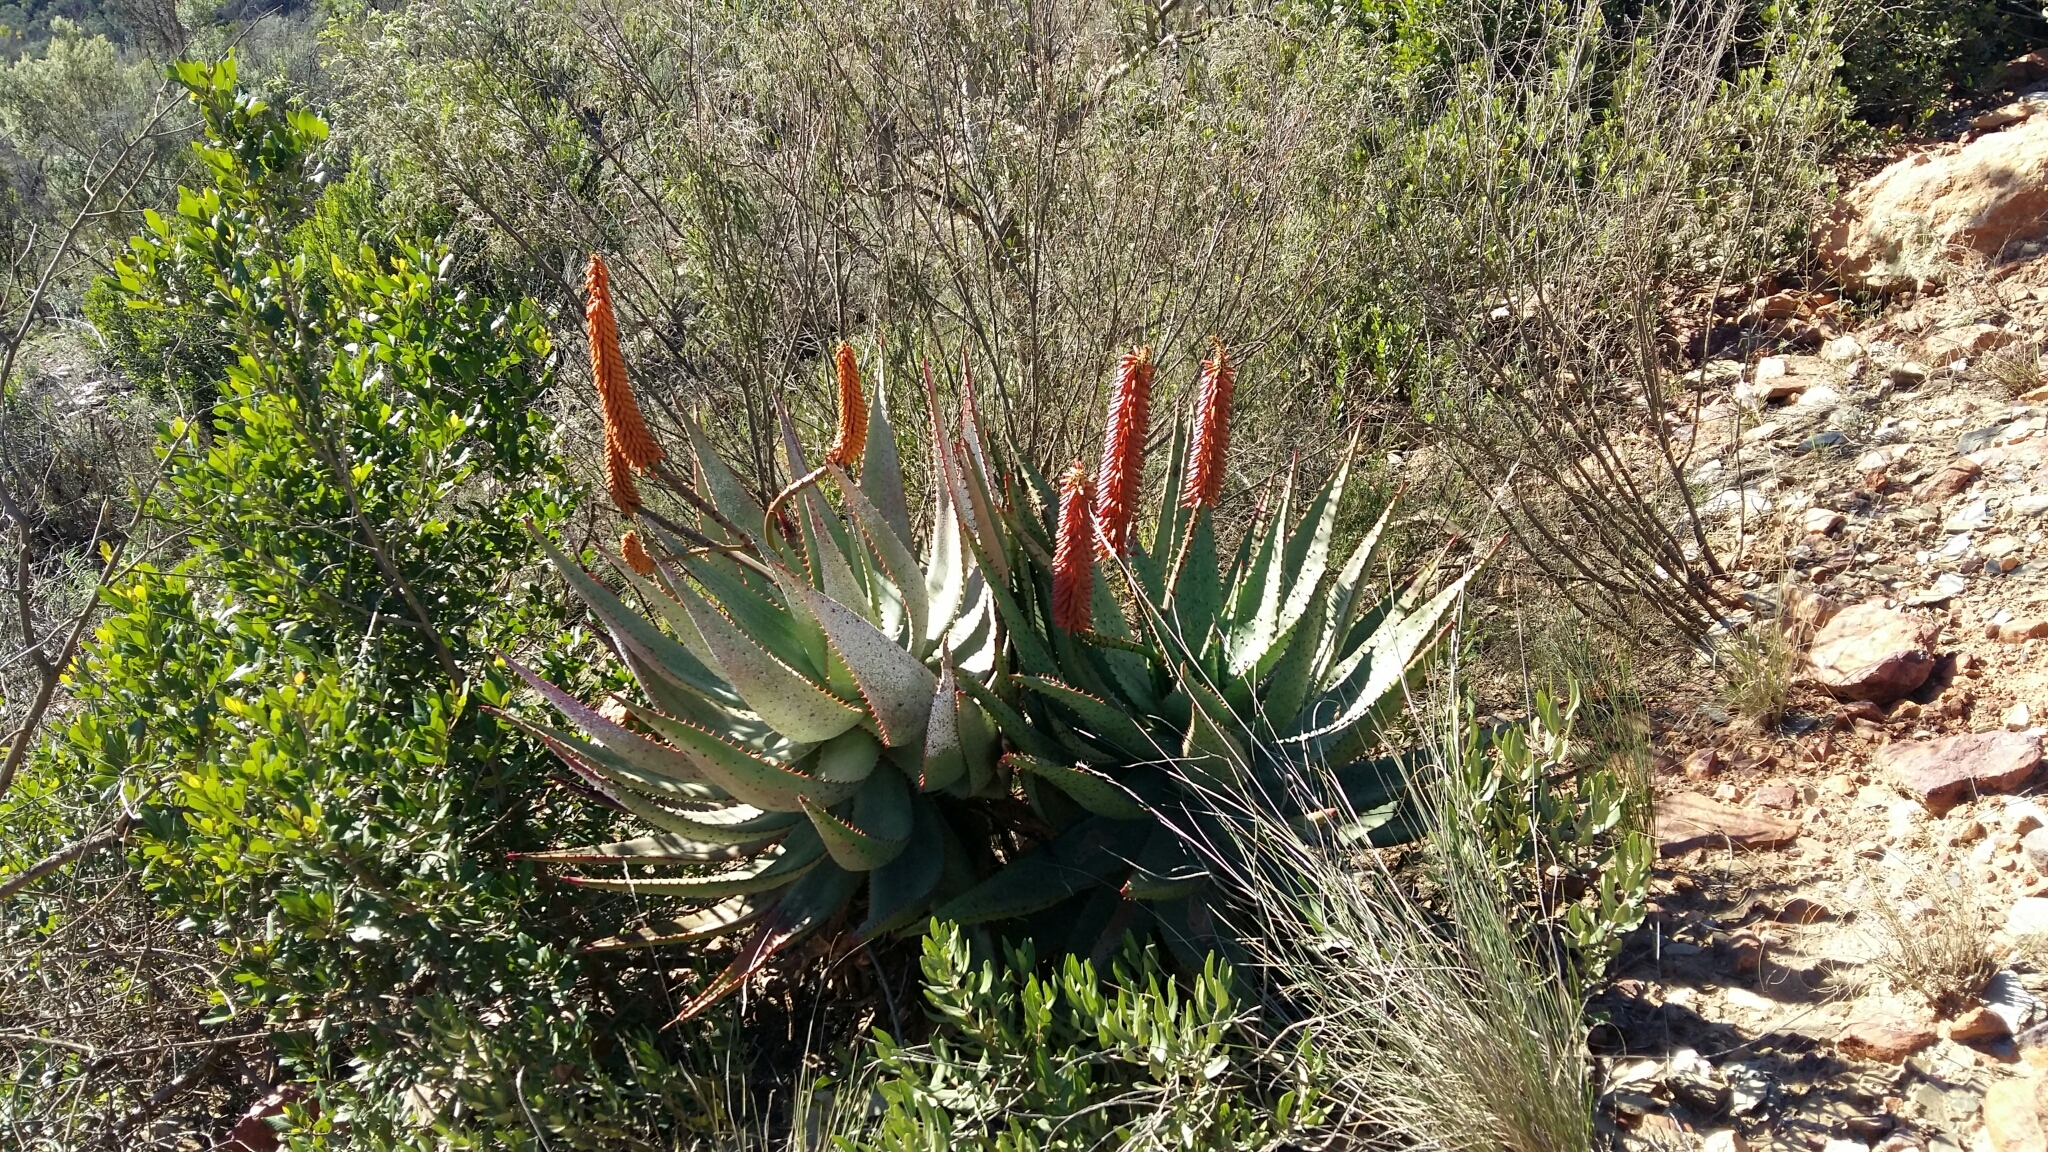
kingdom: Plantae
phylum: Tracheophyta
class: Liliopsida
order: Asparagales
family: Asphodelaceae
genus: Aloe
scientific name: Aloe ferox
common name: Bitter aloe
